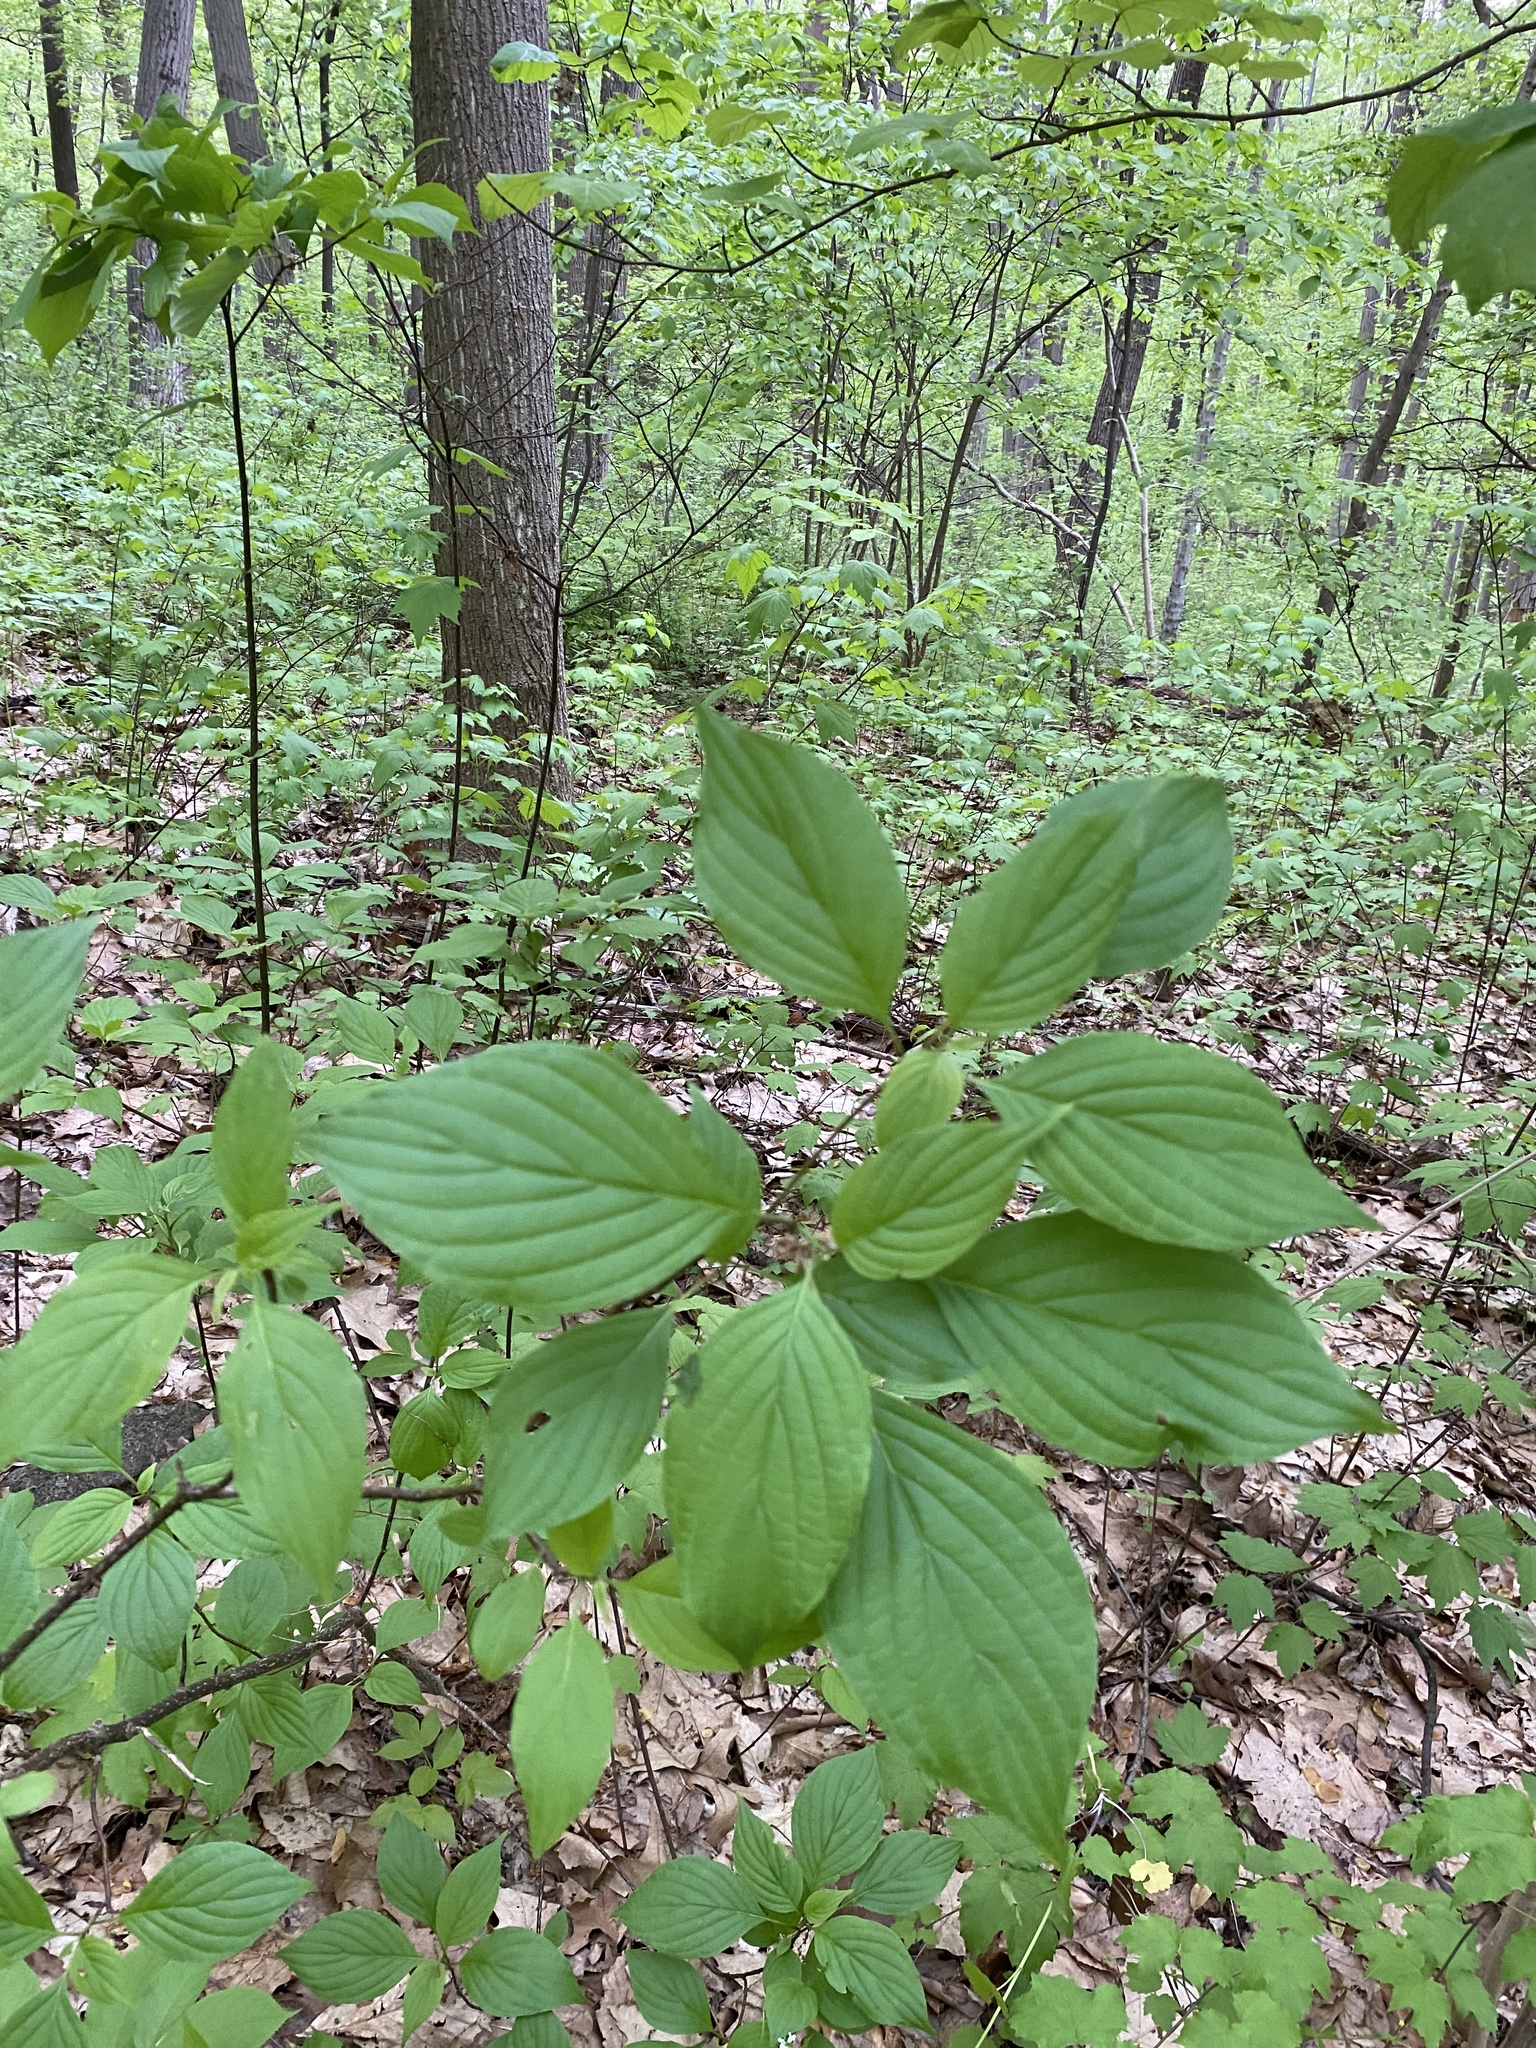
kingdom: Plantae
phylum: Tracheophyta
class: Magnoliopsida
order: Cornales
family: Cornaceae
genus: Cornus
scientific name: Cornus alternifolia
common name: Pagoda dogwood
